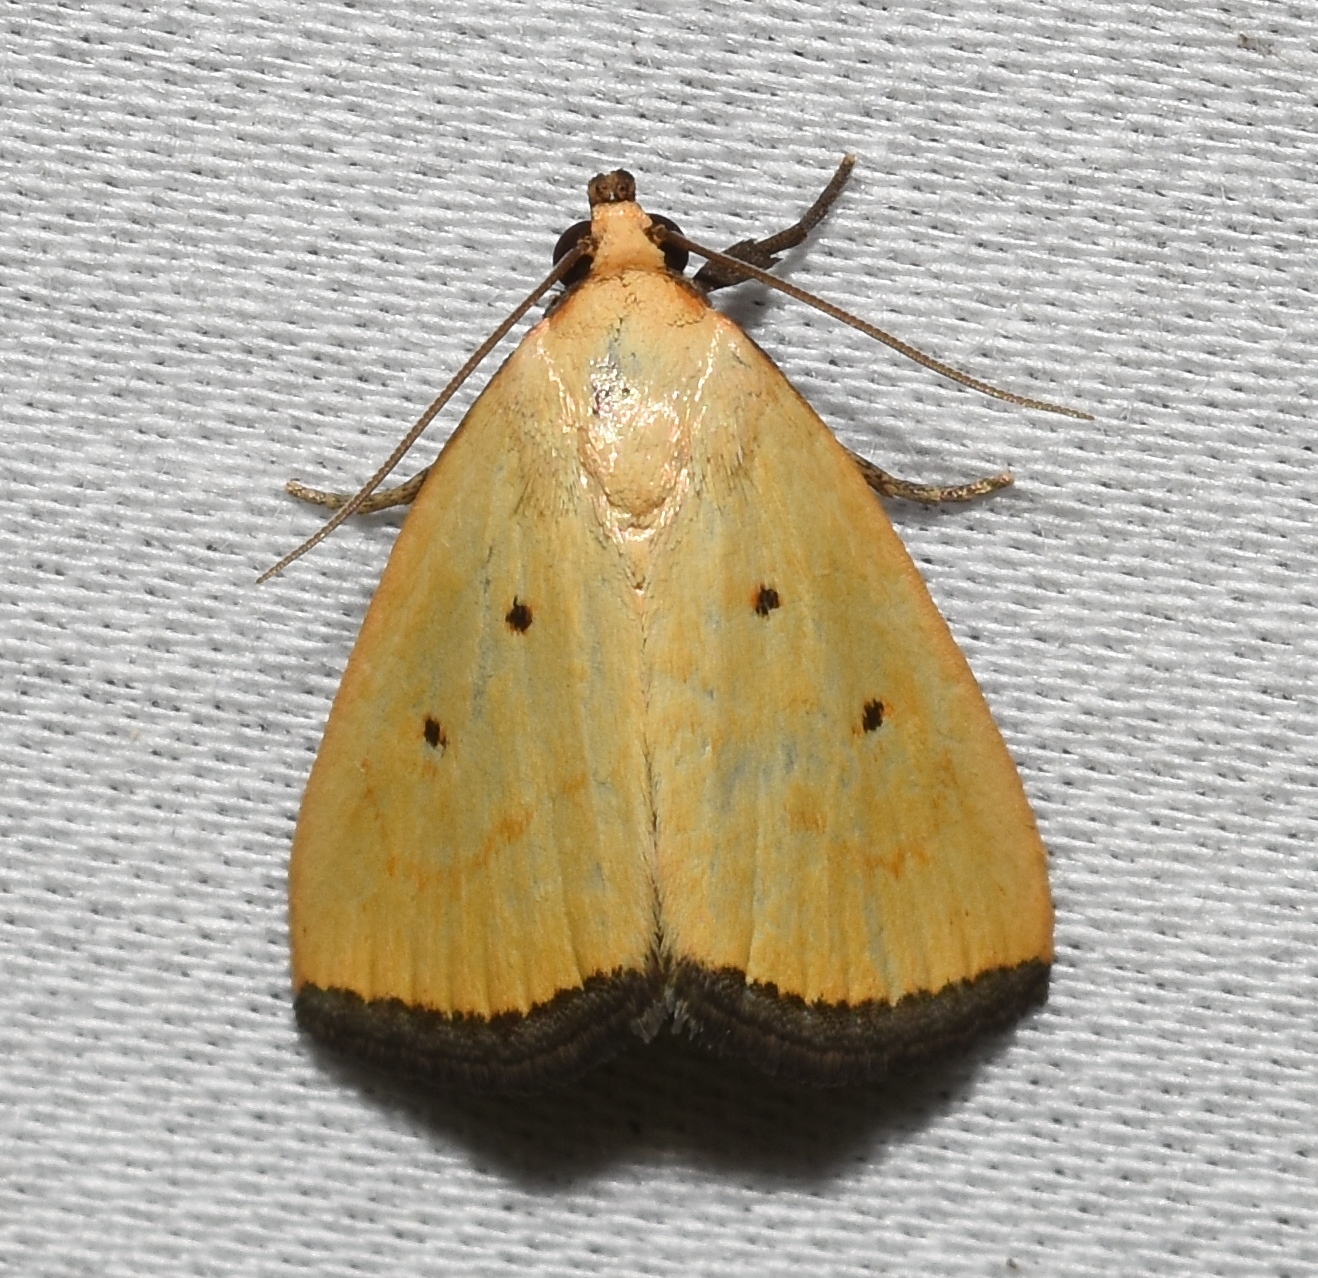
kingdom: Animalia
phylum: Arthropoda
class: Insecta
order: Lepidoptera
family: Noctuidae
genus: Marimatha
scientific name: Marimatha nigrofimbria
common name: Black-bordered lemon moth
